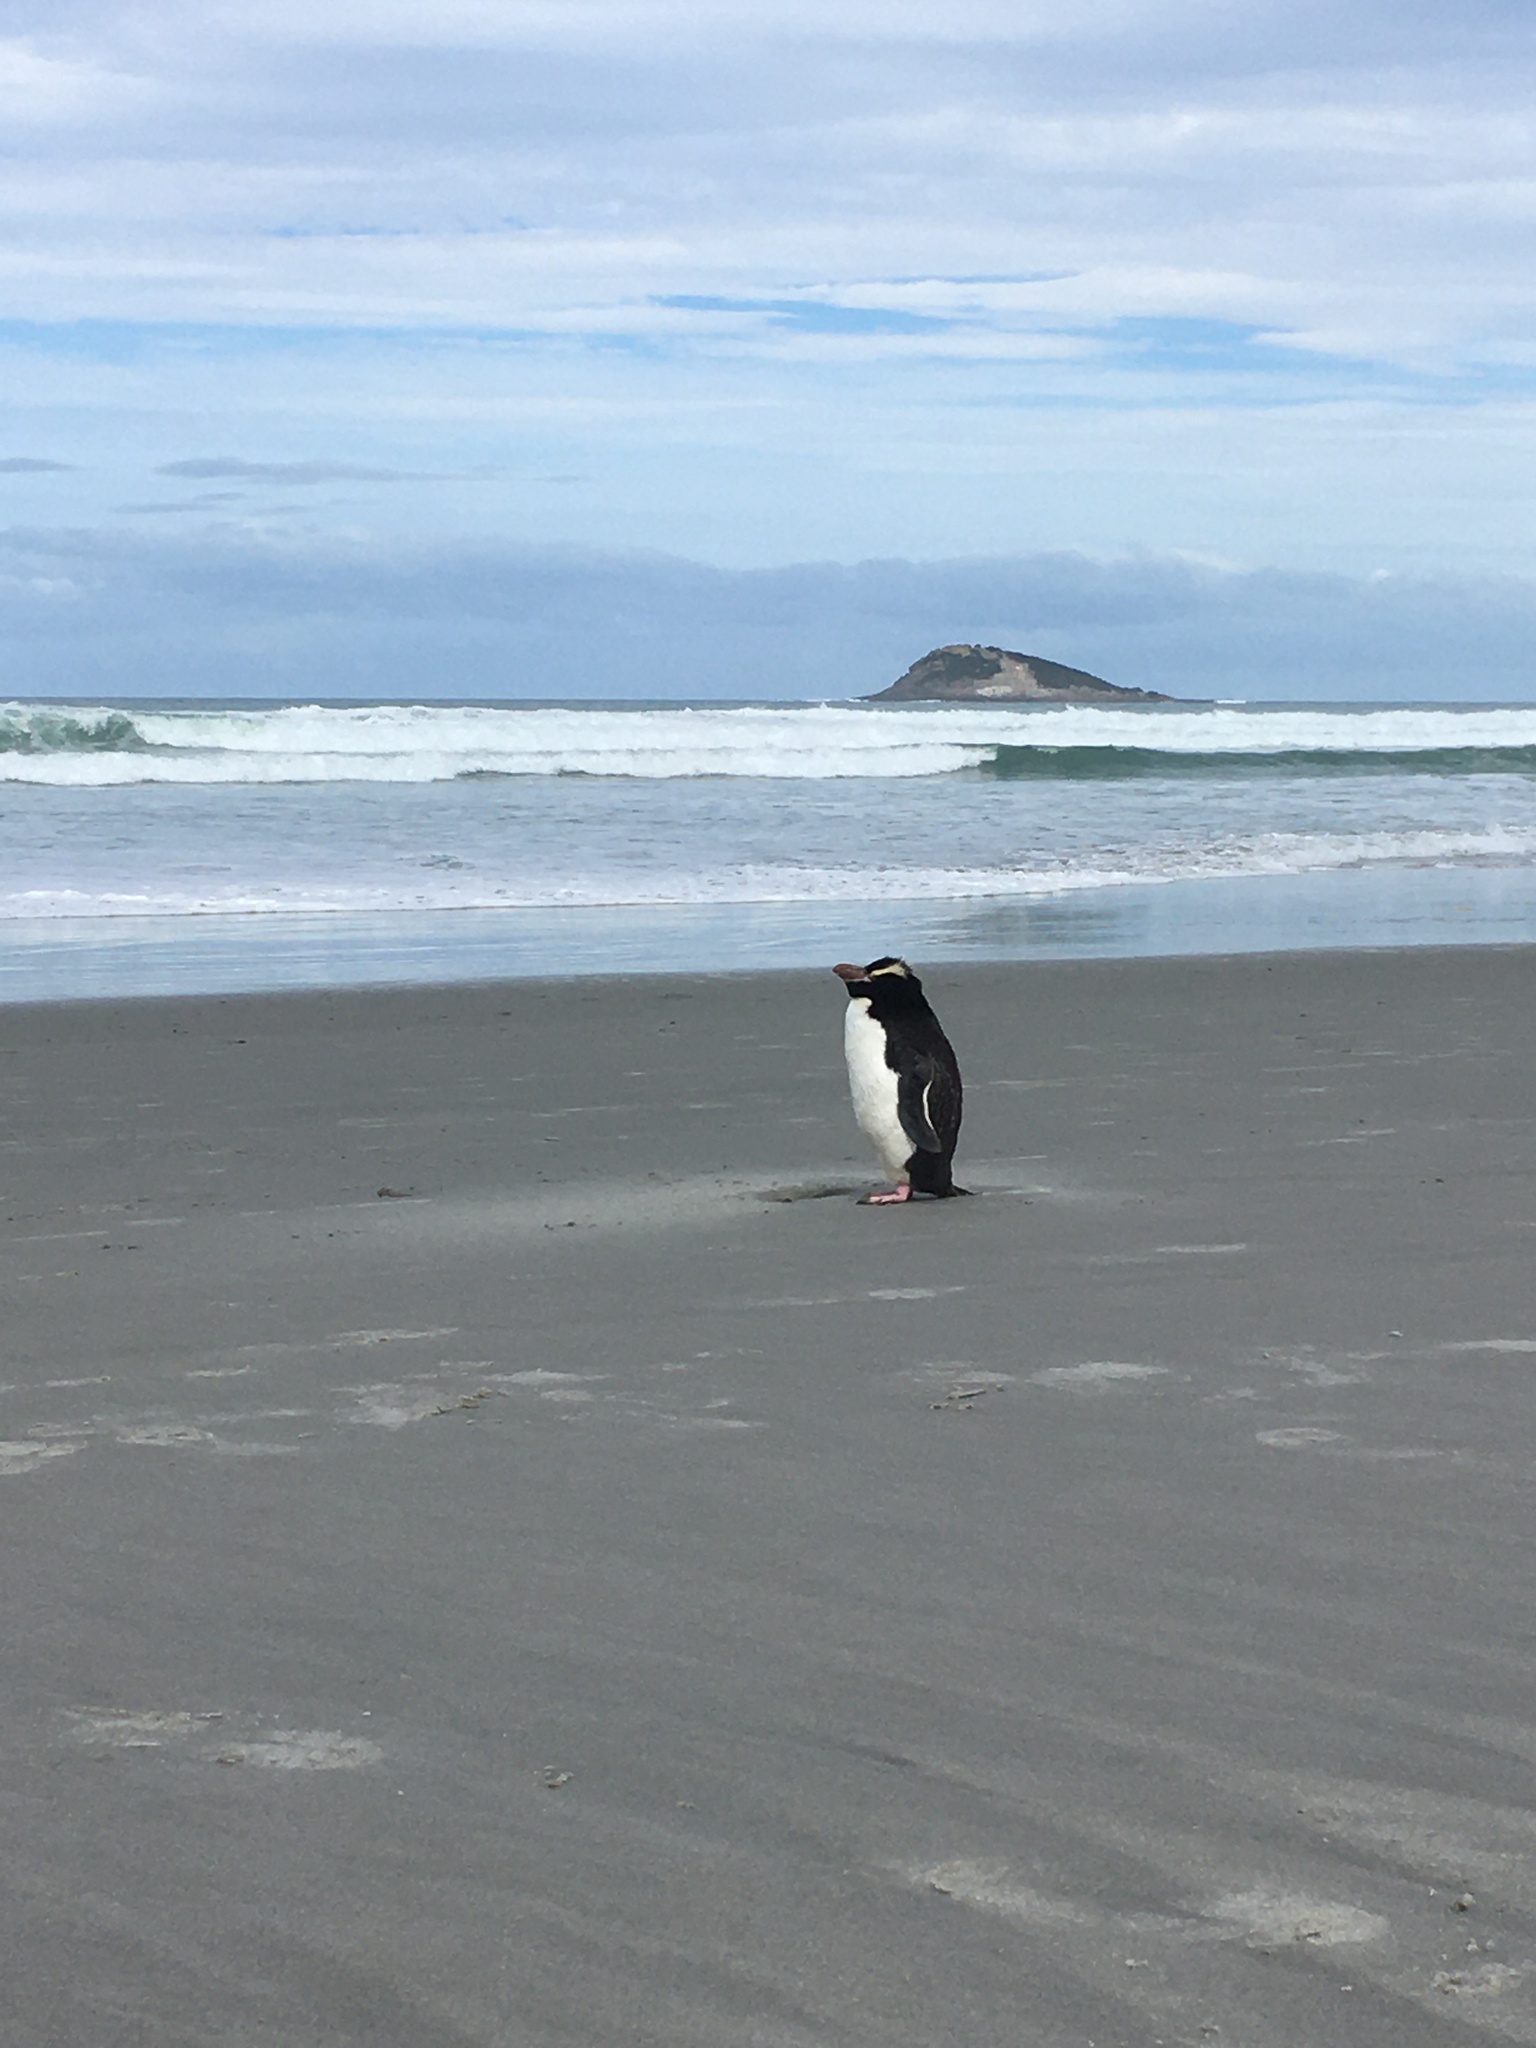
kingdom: Animalia
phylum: Chordata
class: Aves
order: Sphenisciformes
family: Spheniscidae
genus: Eudyptes
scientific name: Eudyptes sclateri
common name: Erect-crested penguin
